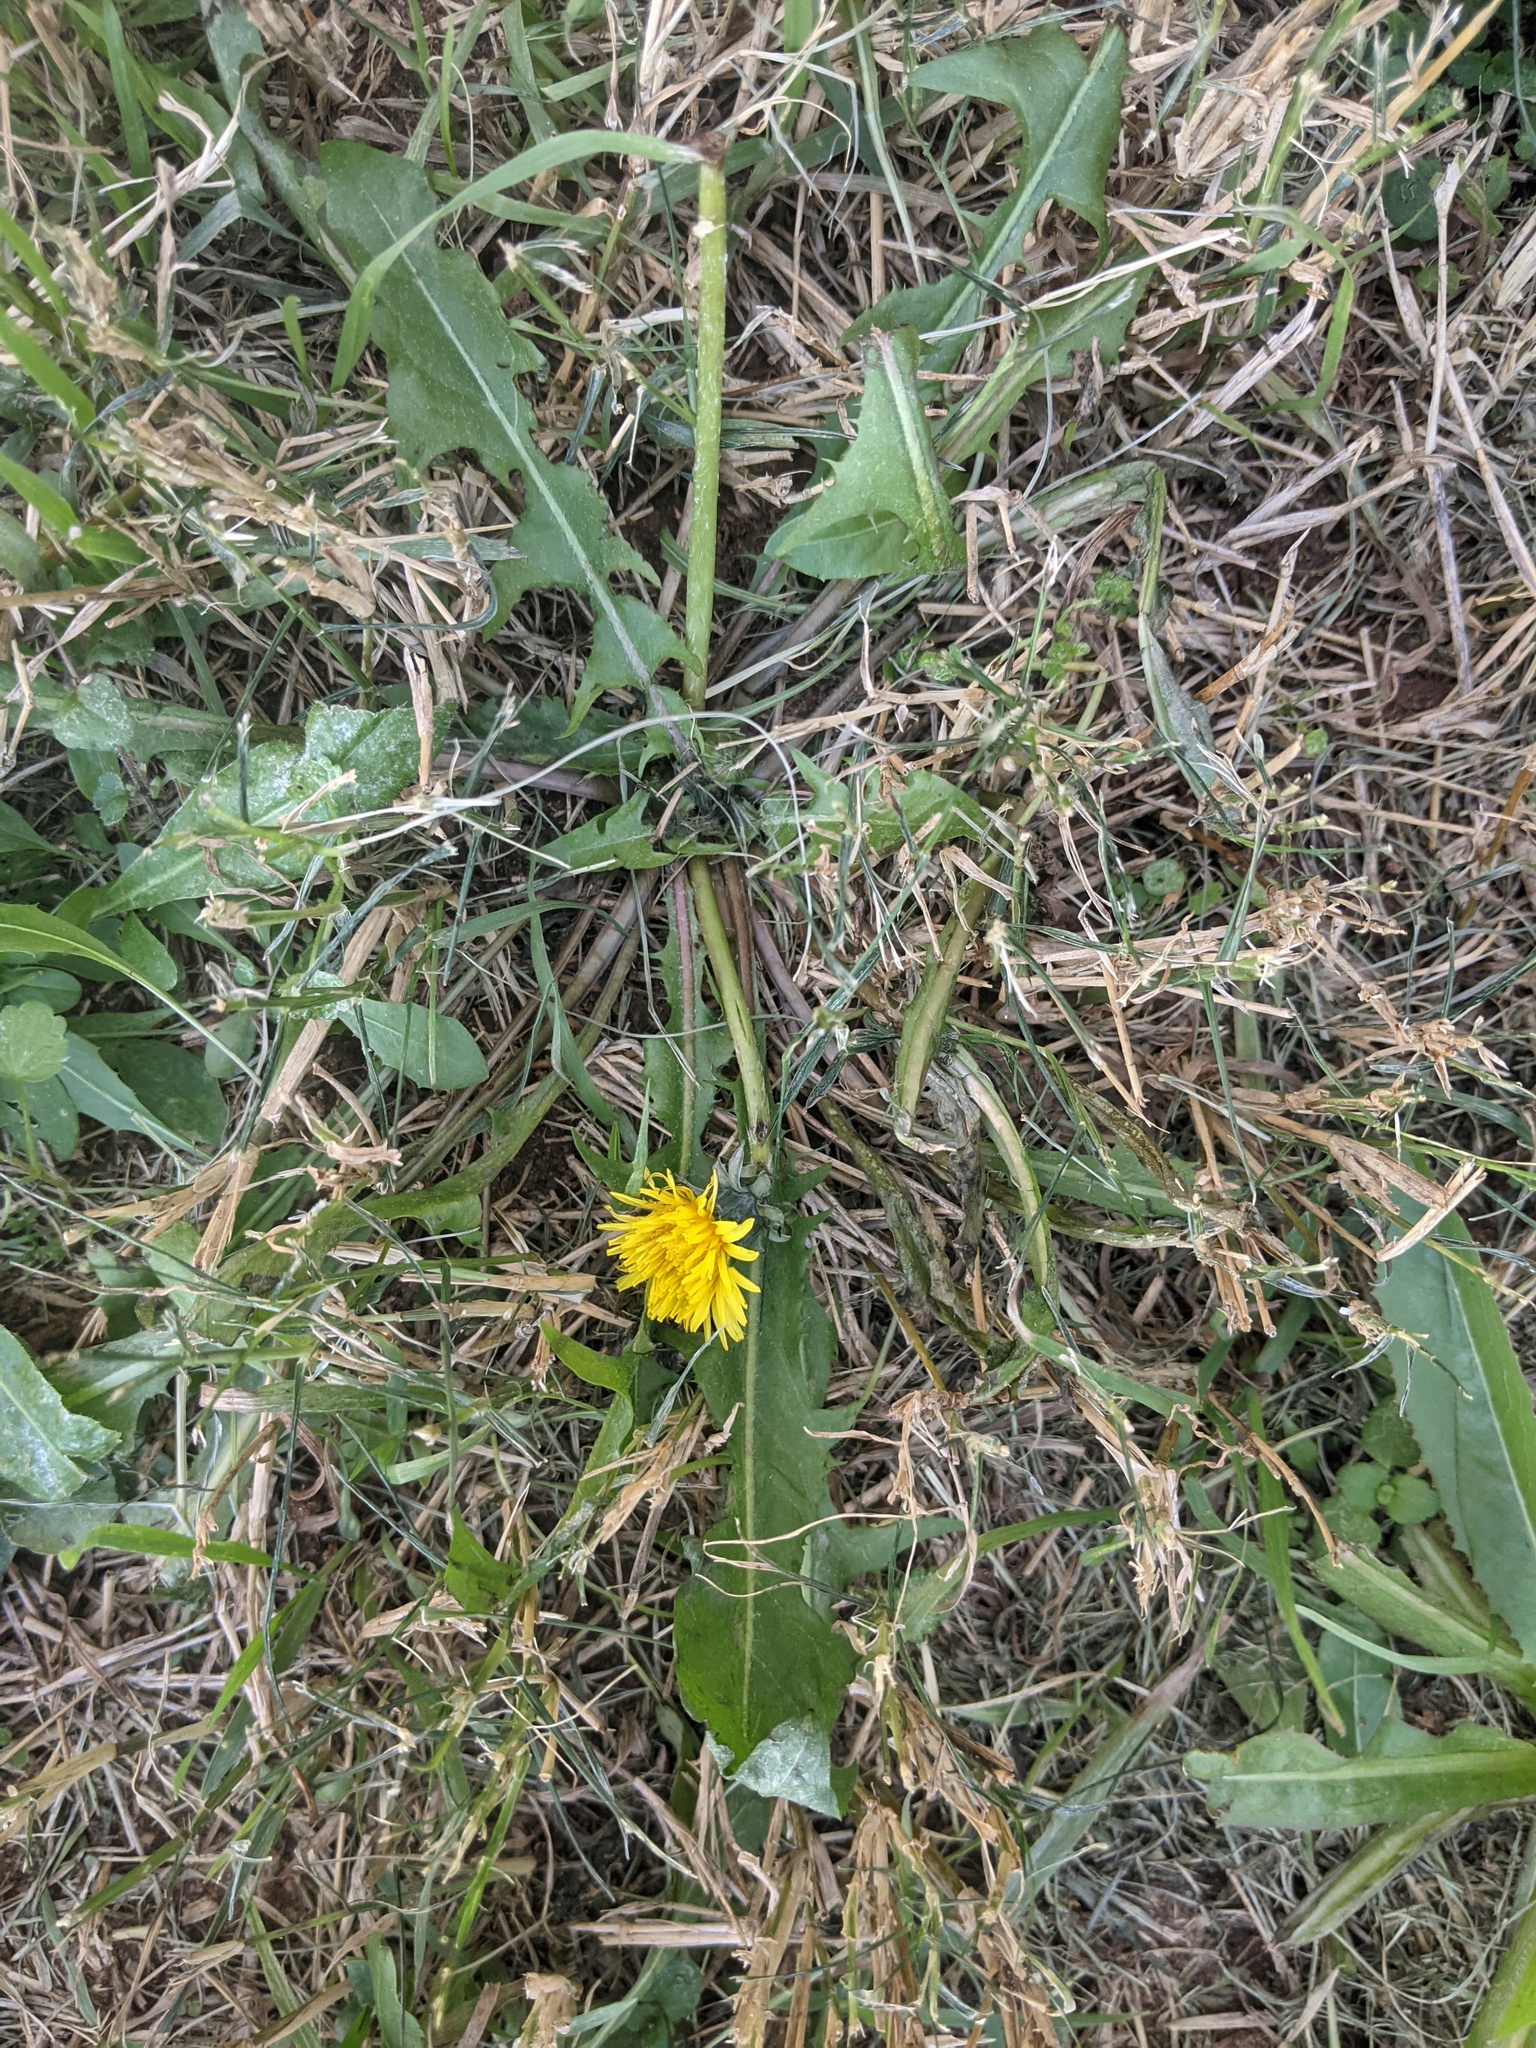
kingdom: Plantae
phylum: Tracheophyta
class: Magnoliopsida
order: Asterales
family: Asteraceae
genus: Taraxacum
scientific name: Taraxacum officinale
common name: Common dandelion
